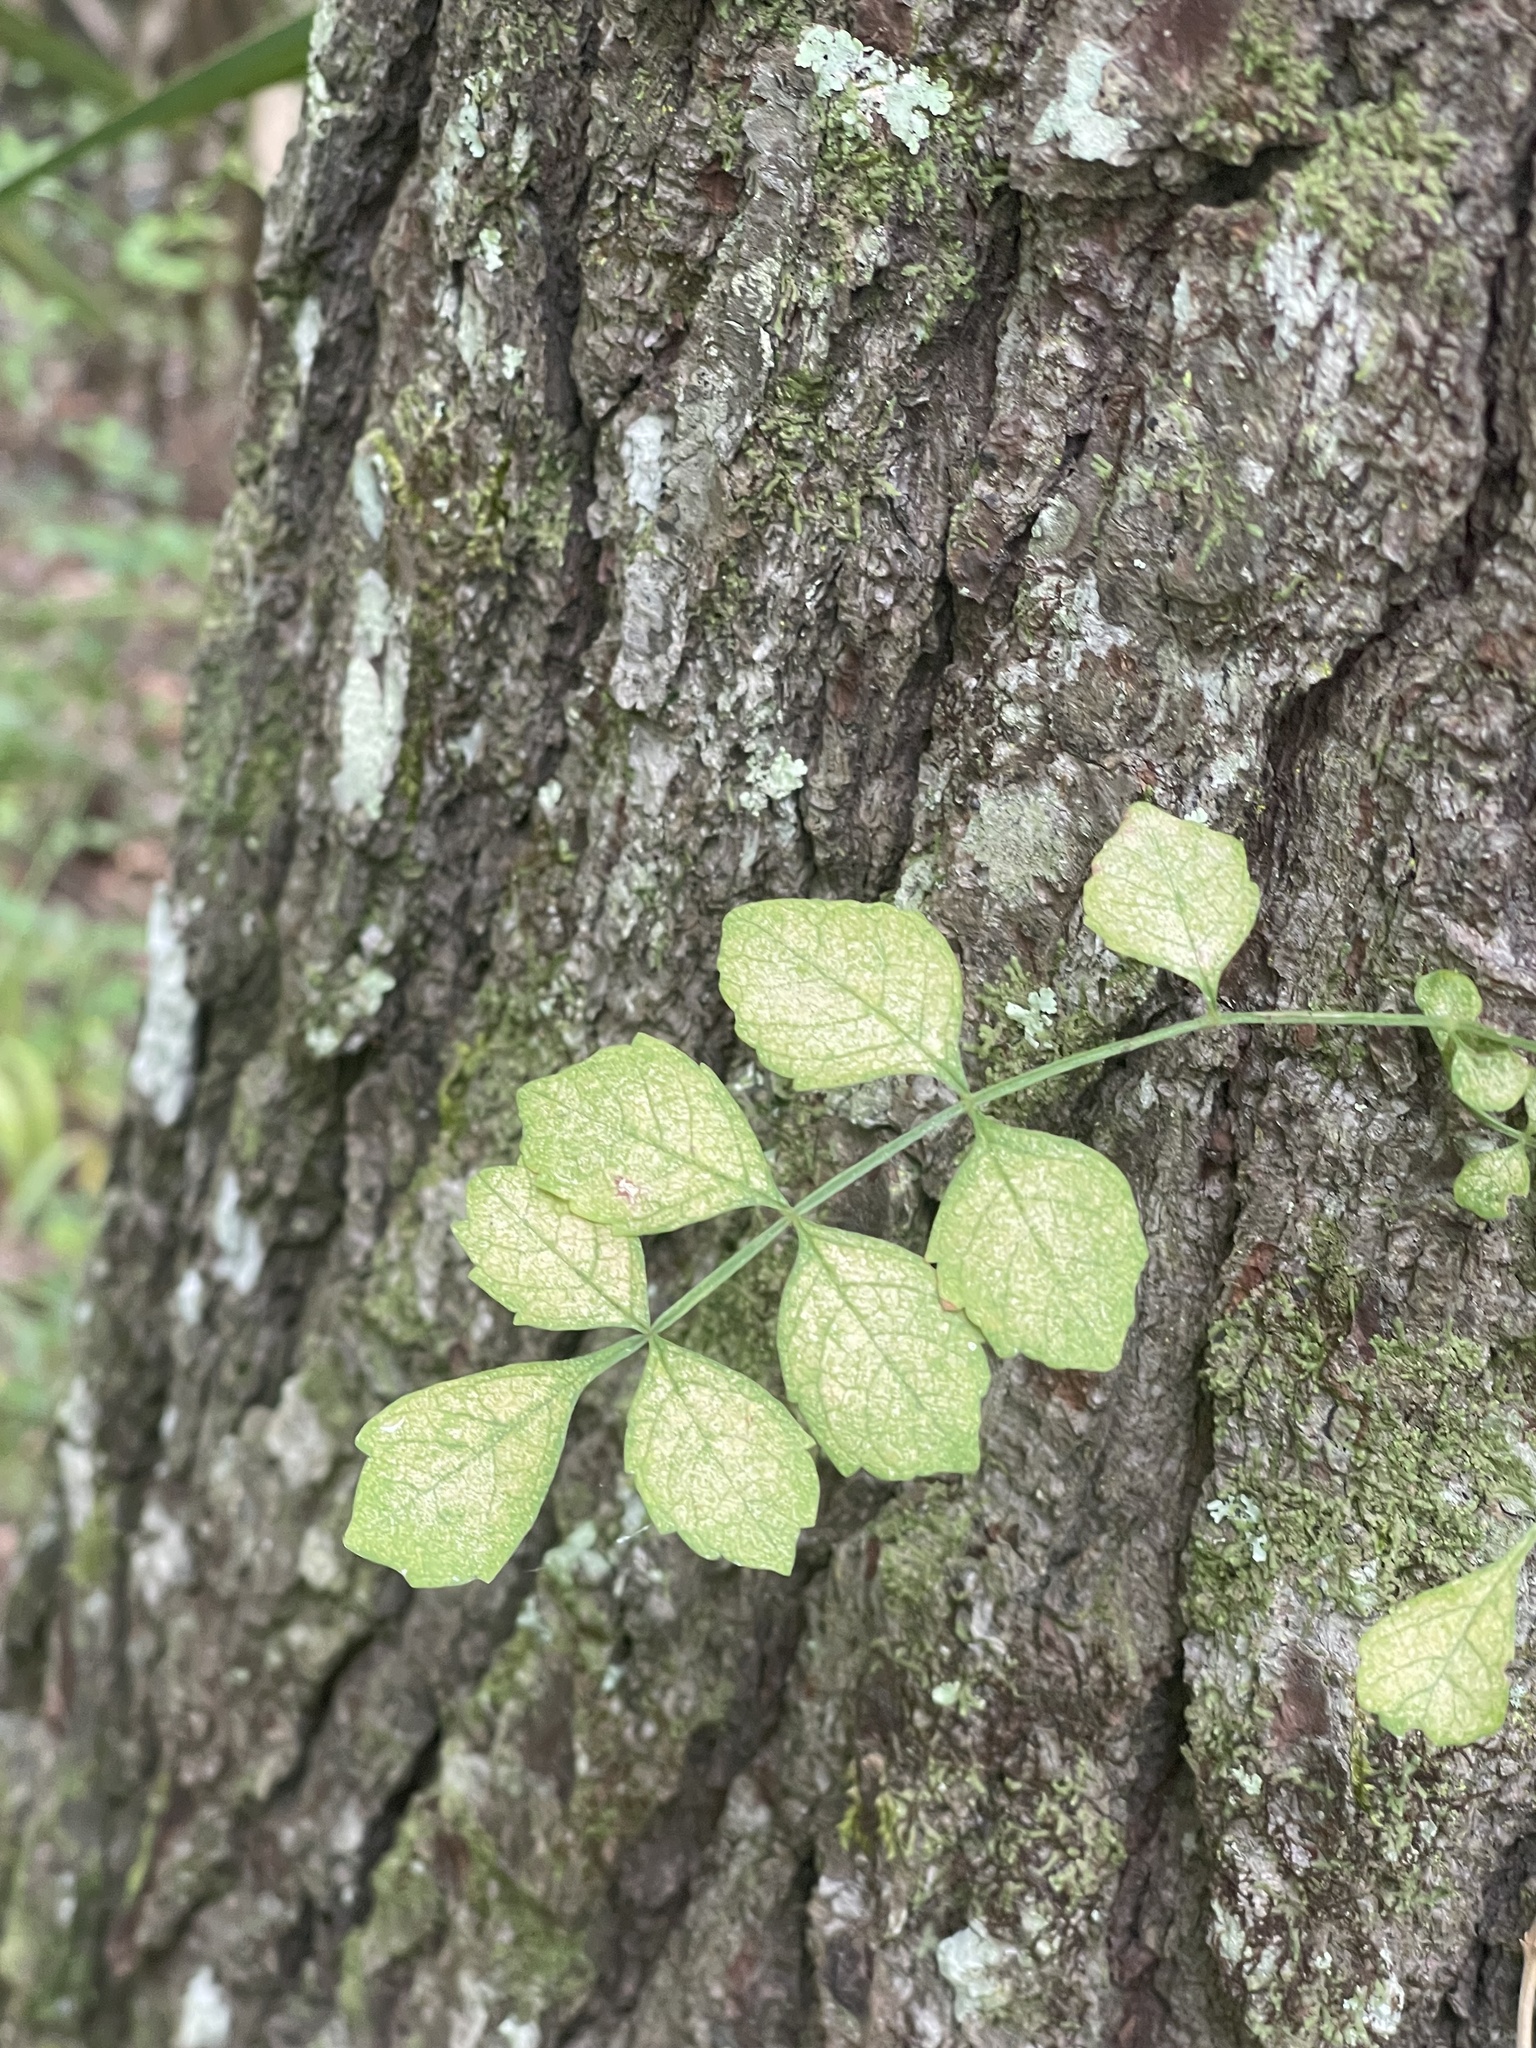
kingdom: Plantae
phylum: Tracheophyta
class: Magnoliopsida
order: Lamiales
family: Bignoniaceae
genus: Campsis
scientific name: Campsis radicans
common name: Trumpet-creeper
